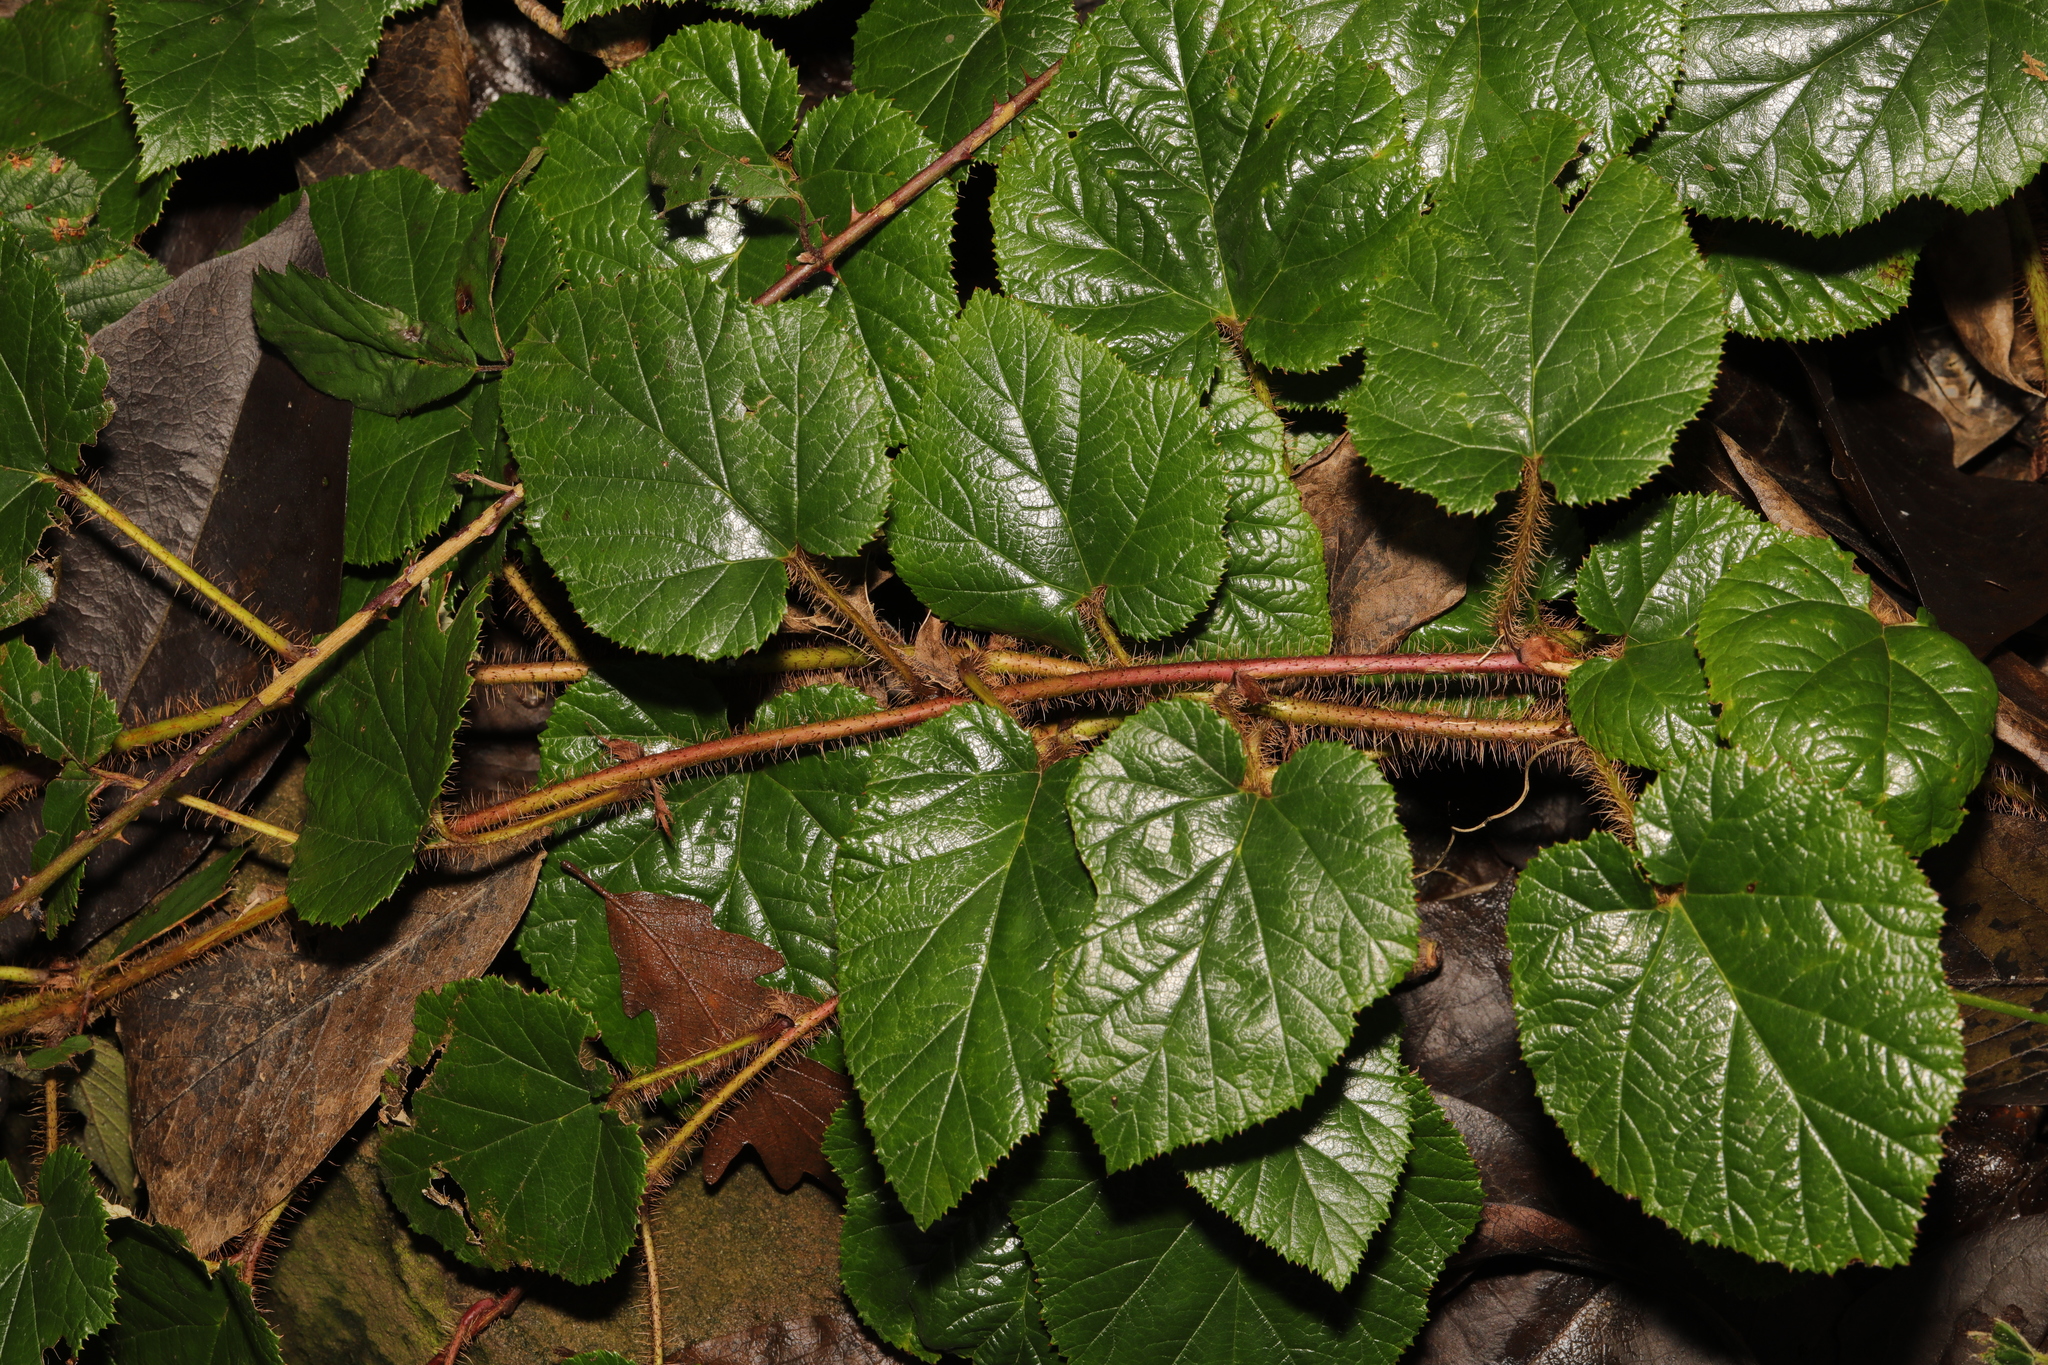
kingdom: Plantae
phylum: Tracheophyta
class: Magnoliopsida
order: Rosales
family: Rosaceae
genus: Rubus
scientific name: Rubus tricolor
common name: Chinese bramble
